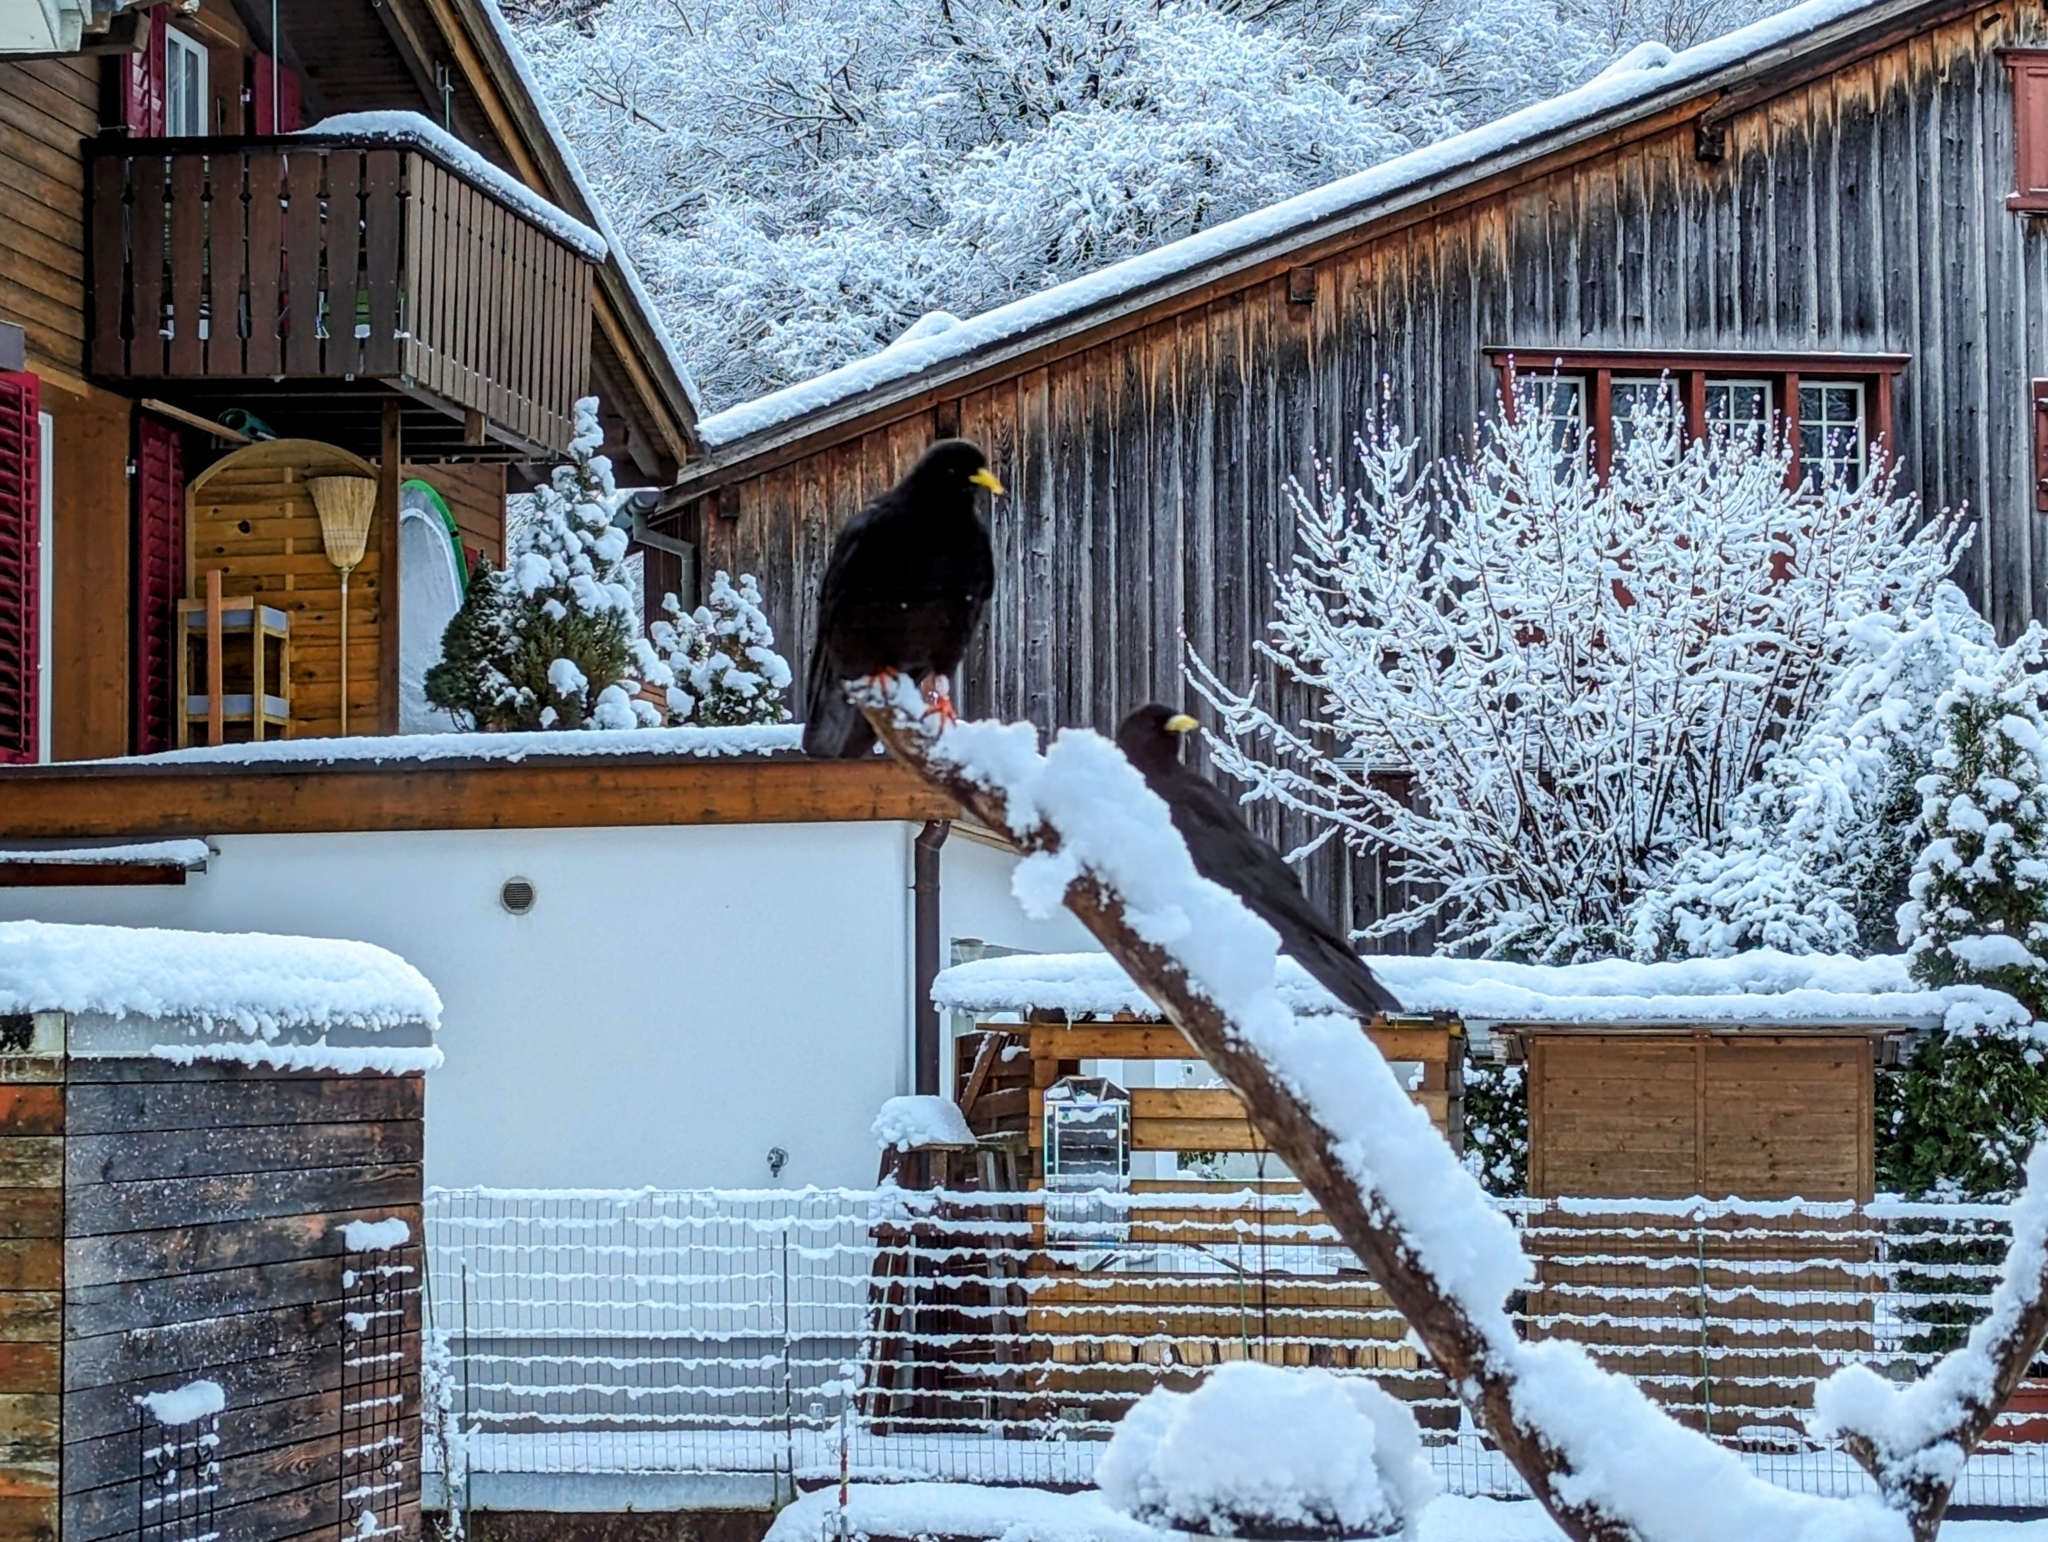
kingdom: Animalia
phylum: Chordata
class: Aves
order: Passeriformes
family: Corvidae
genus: Pyrrhocorax
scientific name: Pyrrhocorax graculus
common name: Alpine chough
